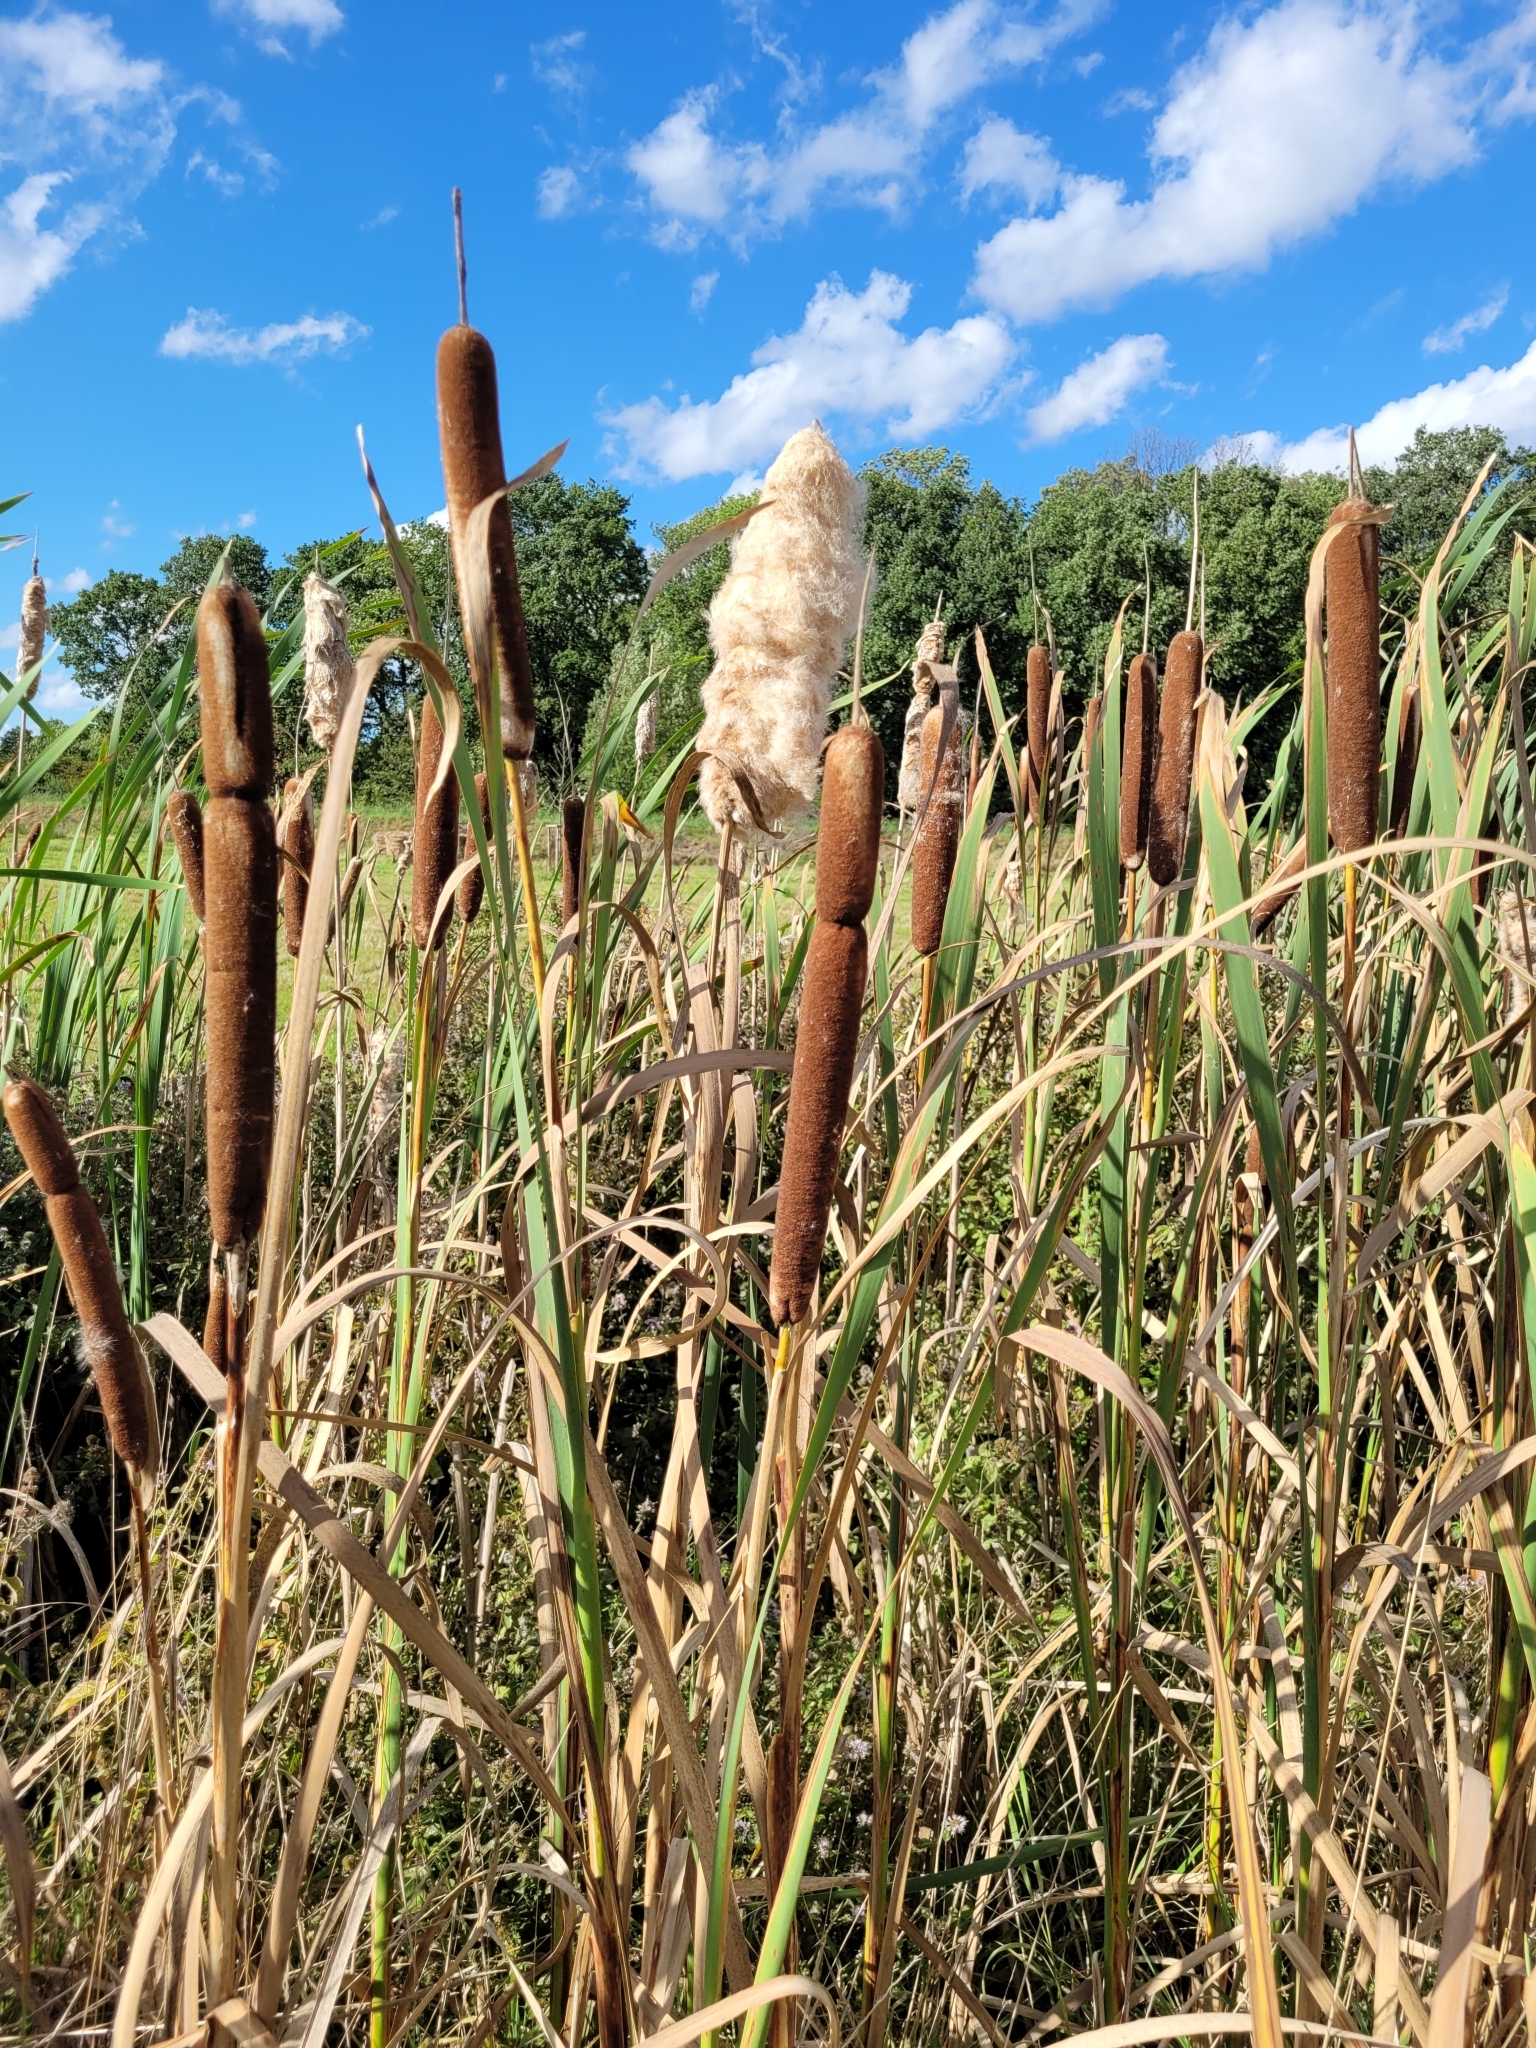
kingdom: Plantae
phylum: Tracheophyta
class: Liliopsida
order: Poales
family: Typhaceae
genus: Typha
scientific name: Typha latifolia
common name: Broadleaf cattail
